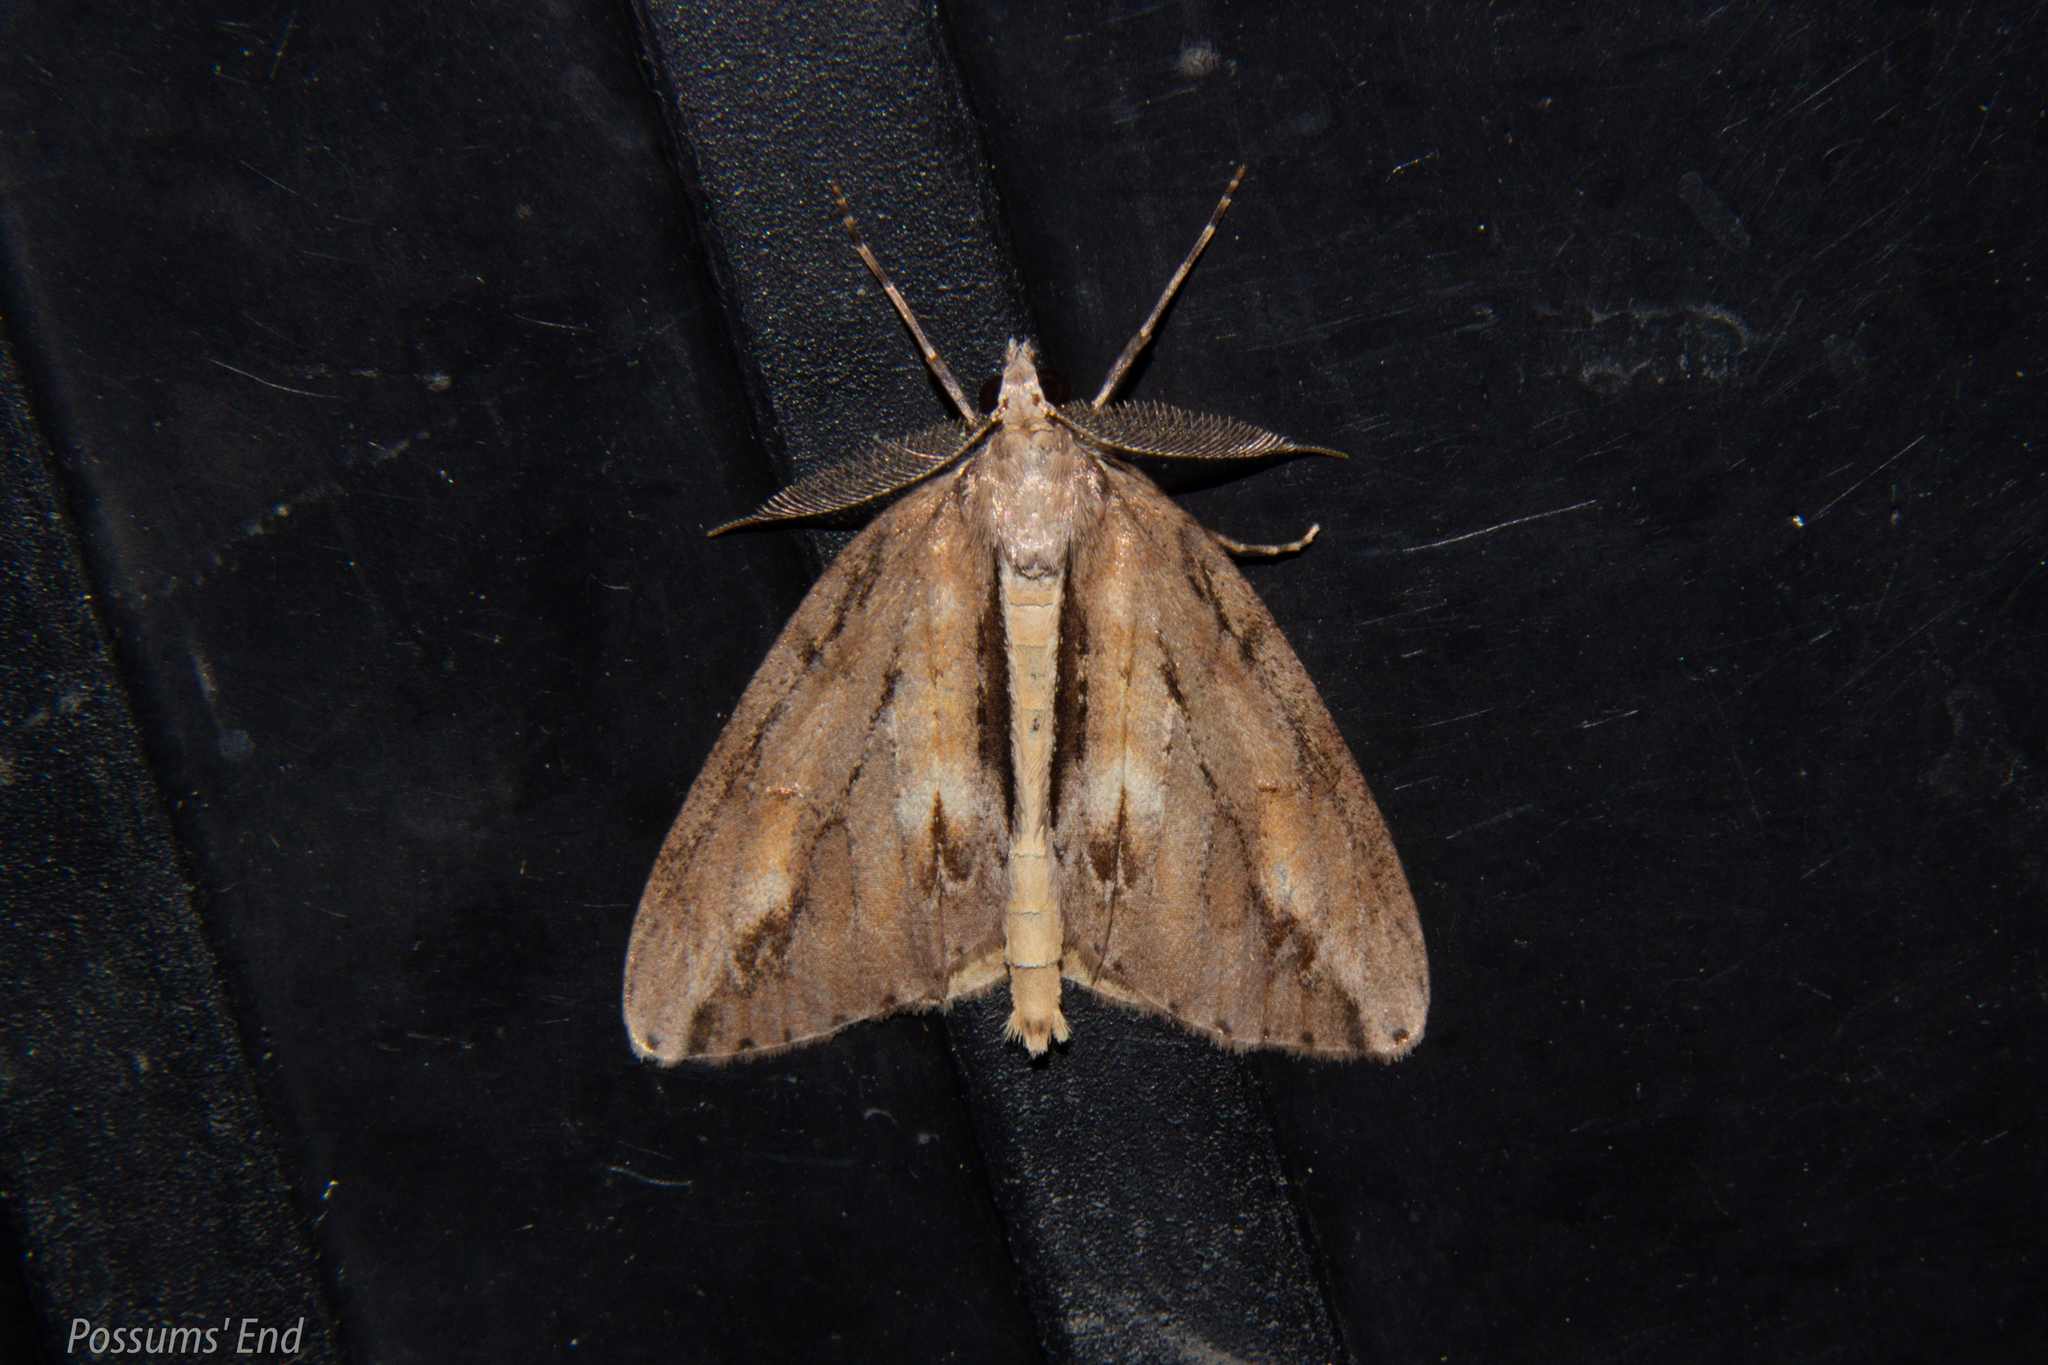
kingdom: Animalia
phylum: Arthropoda
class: Insecta
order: Lepidoptera
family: Geometridae
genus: Pseudocoremia
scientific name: Pseudocoremia lupinata
